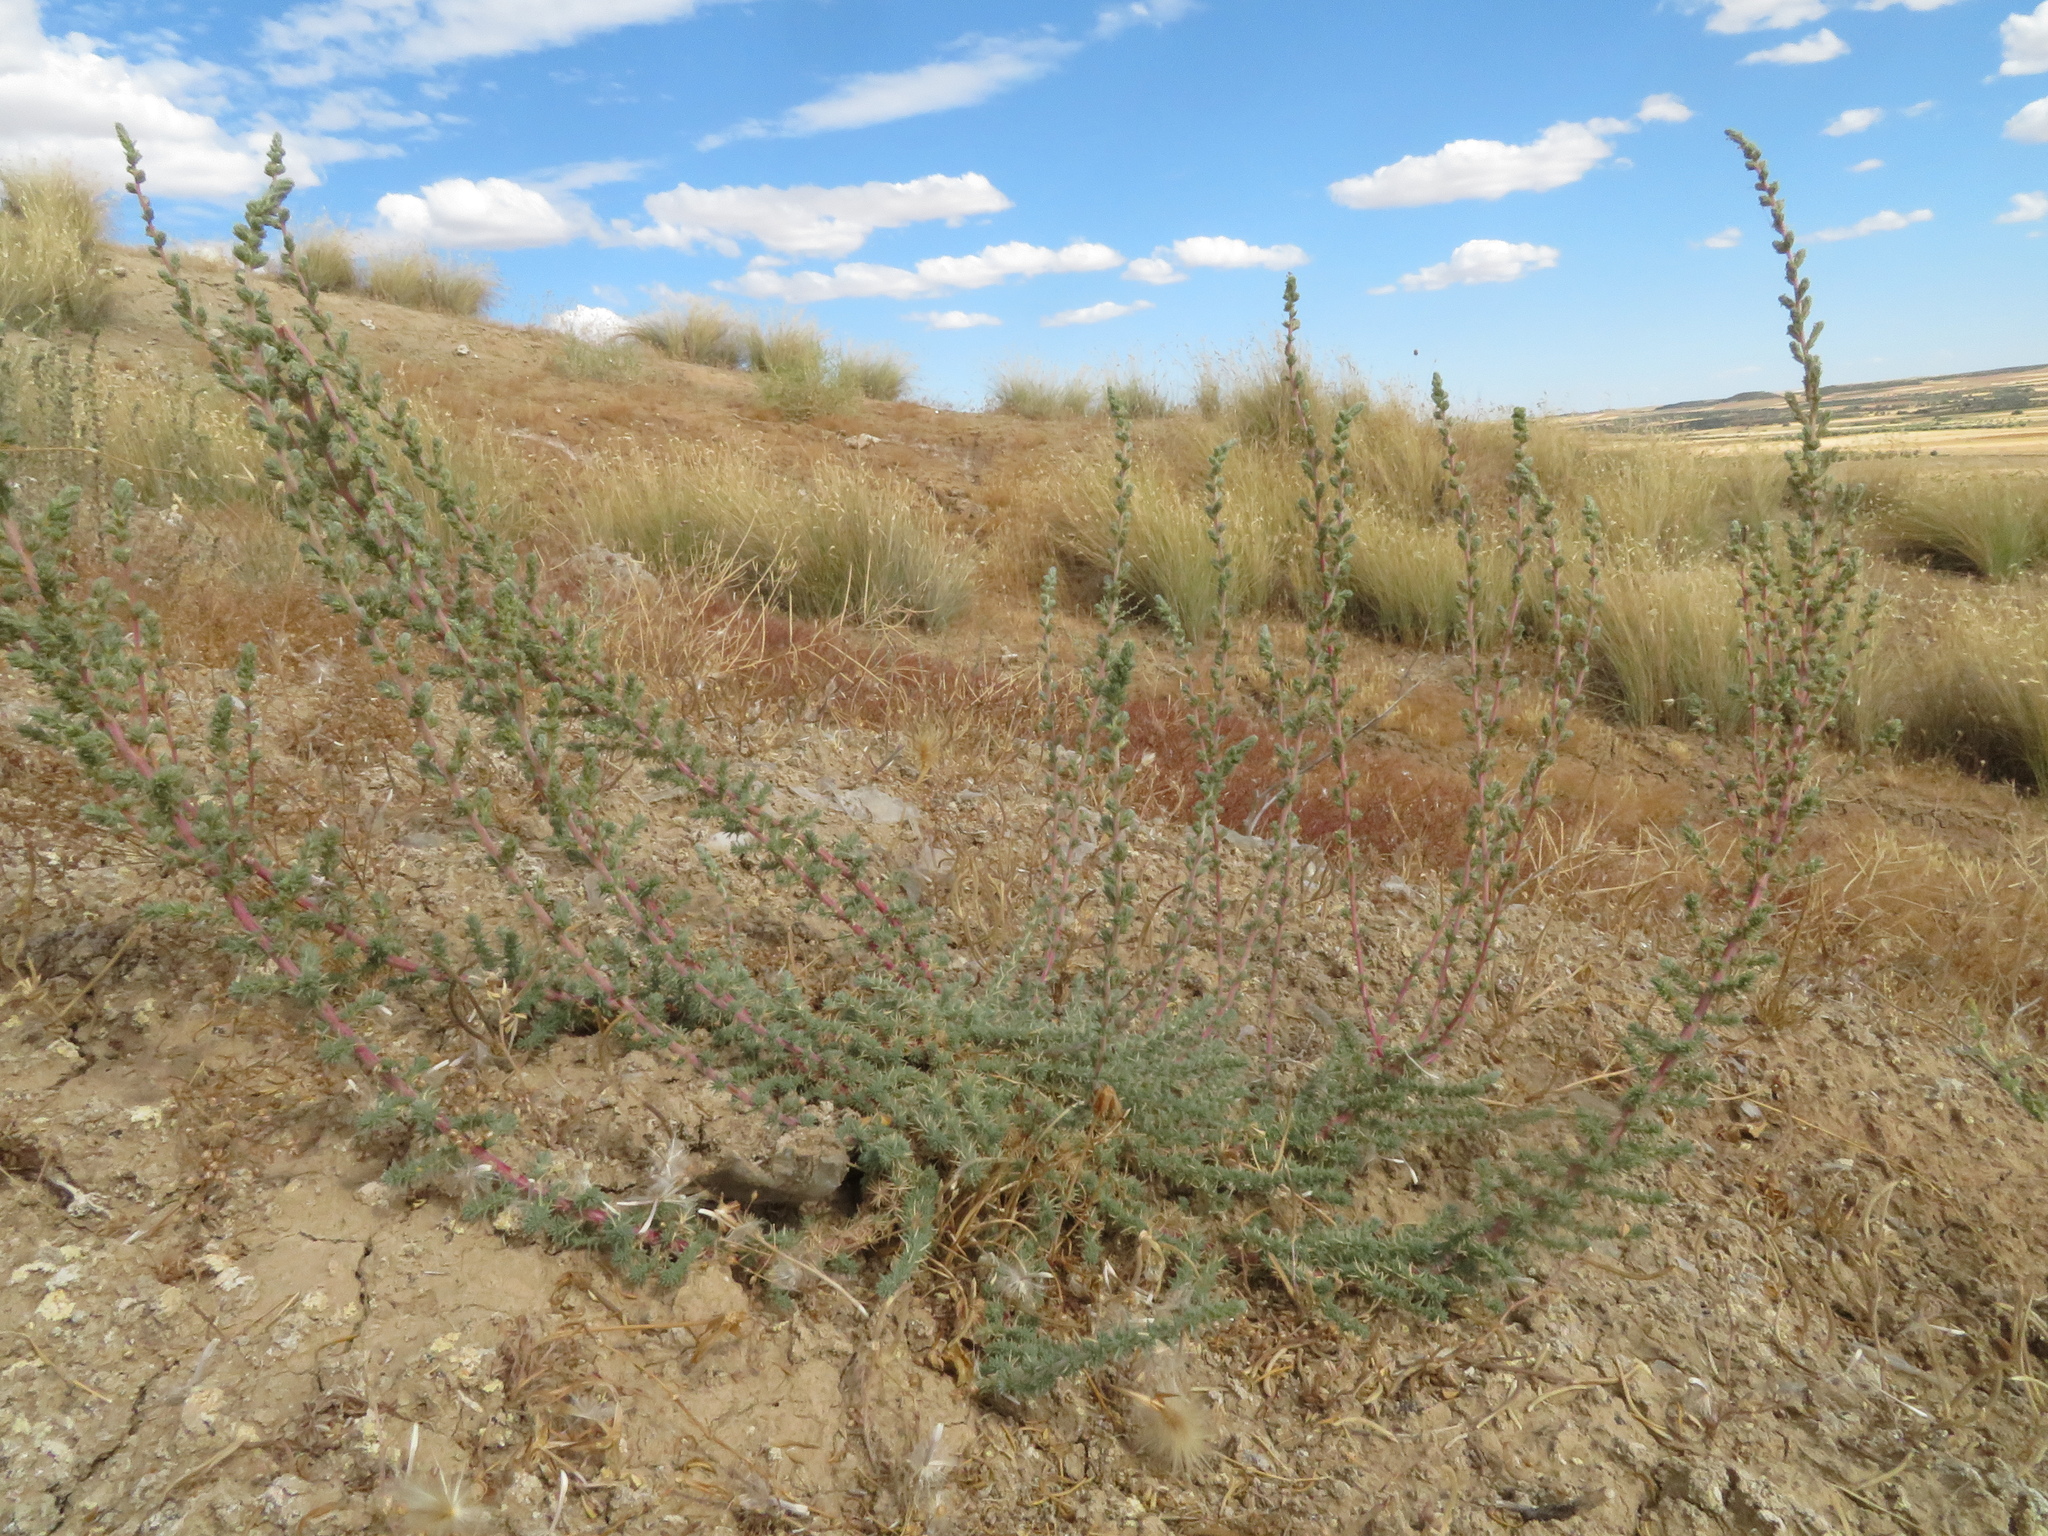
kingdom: Plantae
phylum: Tracheophyta
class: Magnoliopsida
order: Caryophyllales
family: Amaranthaceae
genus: Camphorosma
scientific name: Camphorosma monspeliaca
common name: Camphorfume
